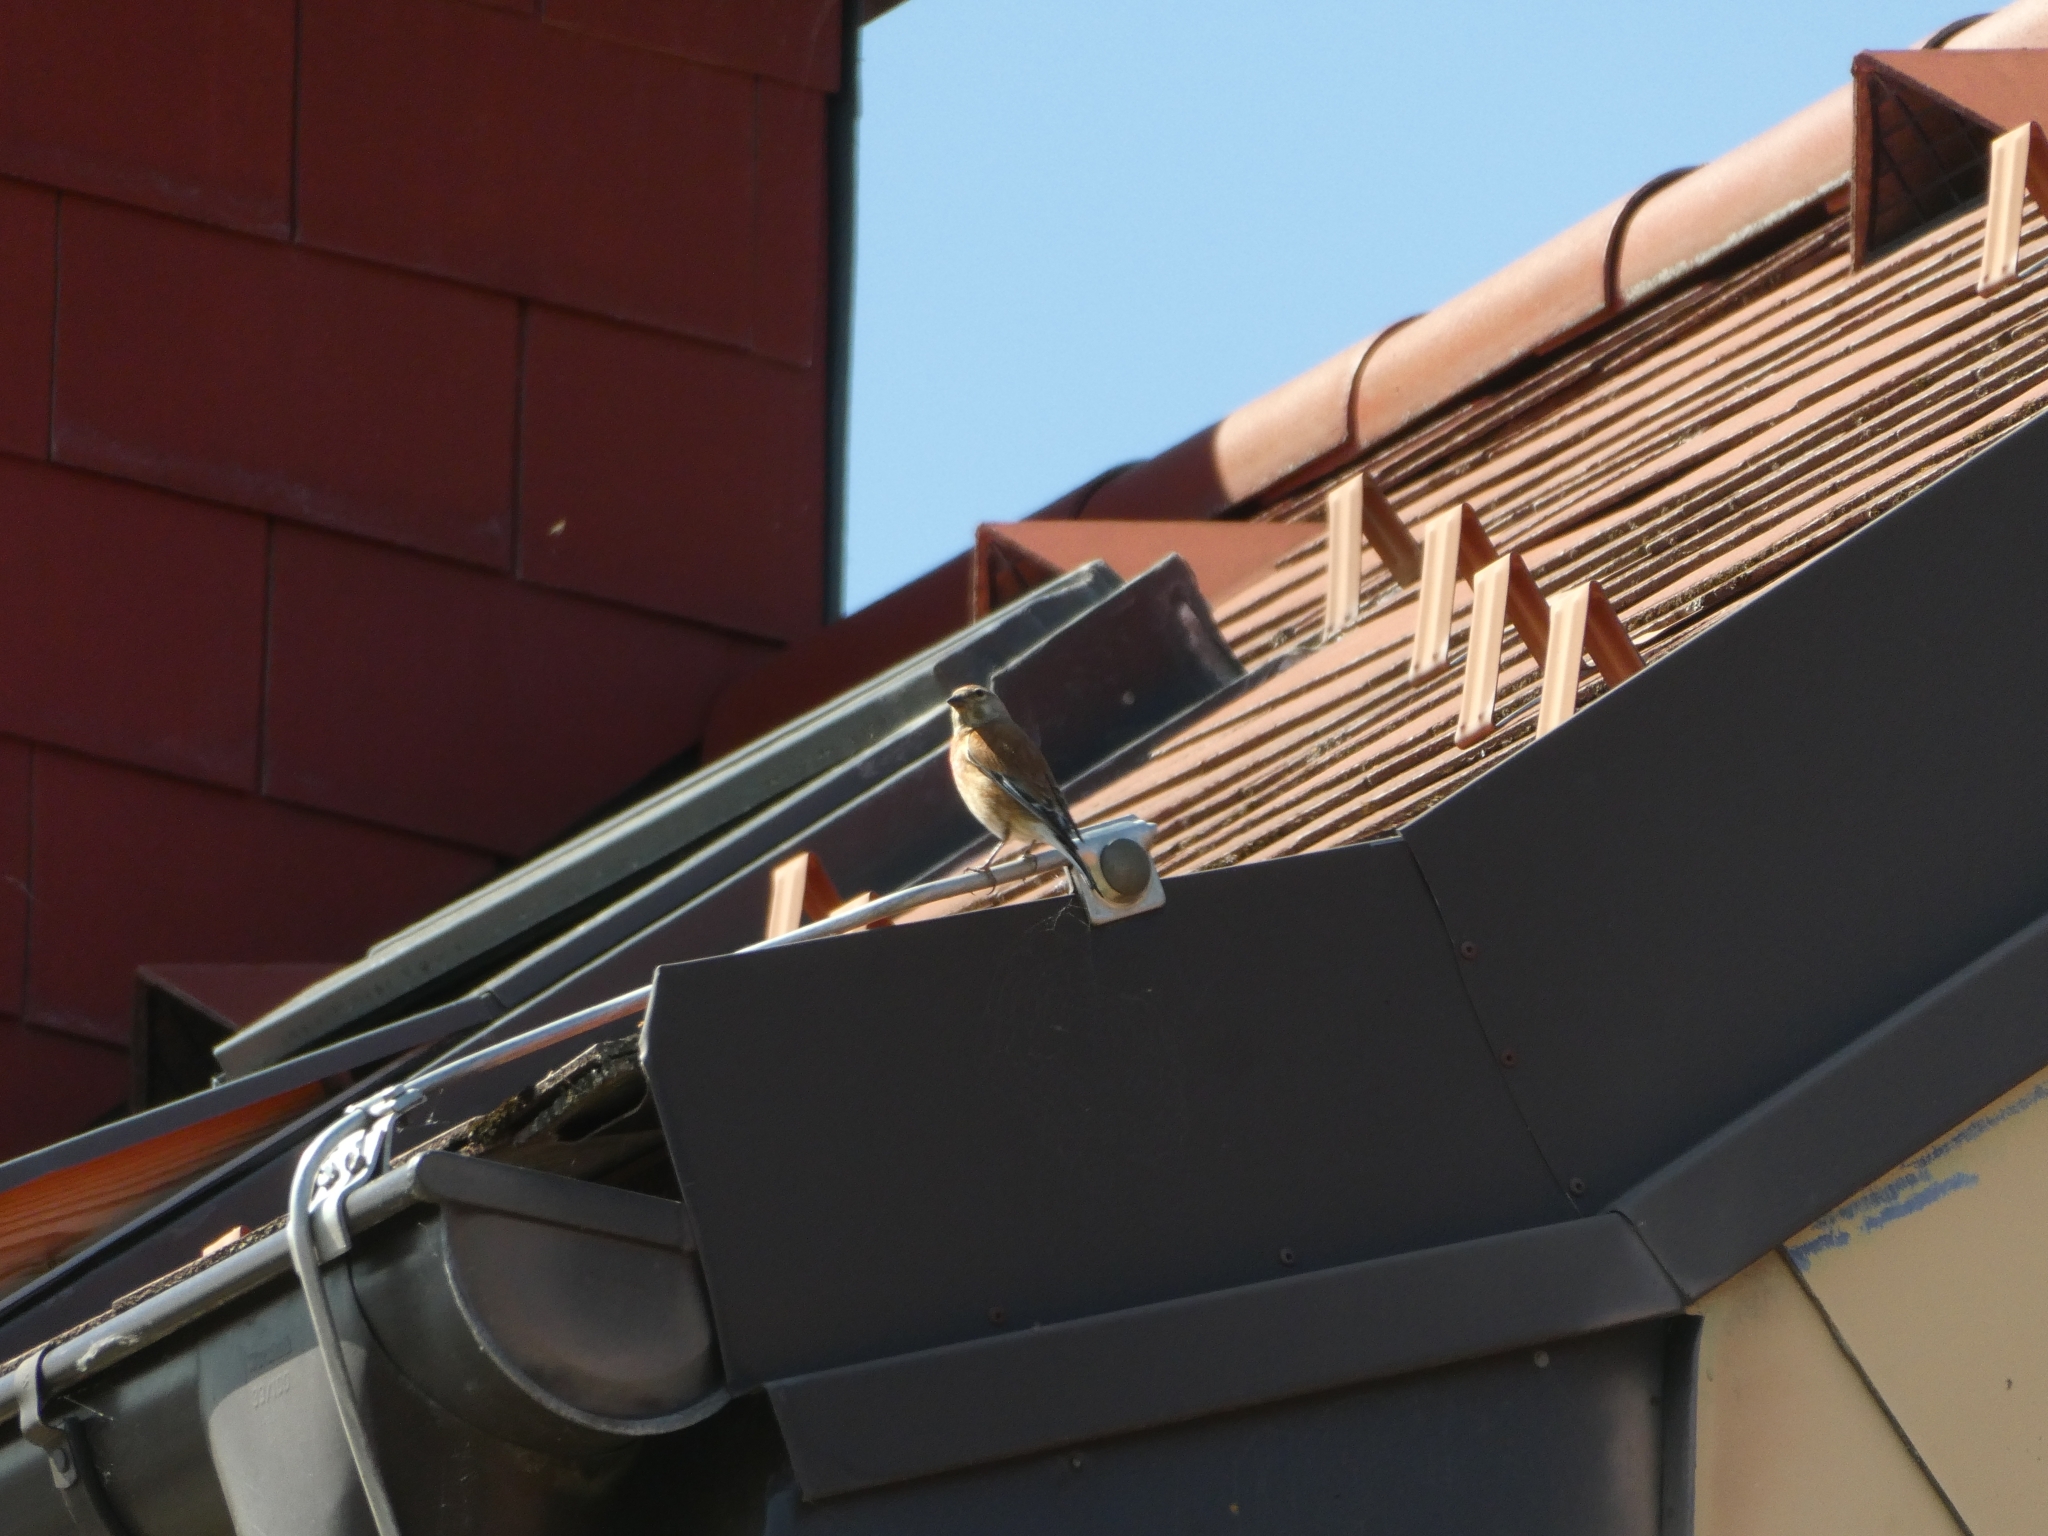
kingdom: Animalia
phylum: Chordata
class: Aves
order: Passeriformes
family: Fringillidae
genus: Linaria
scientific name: Linaria cannabina
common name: Common linnet
